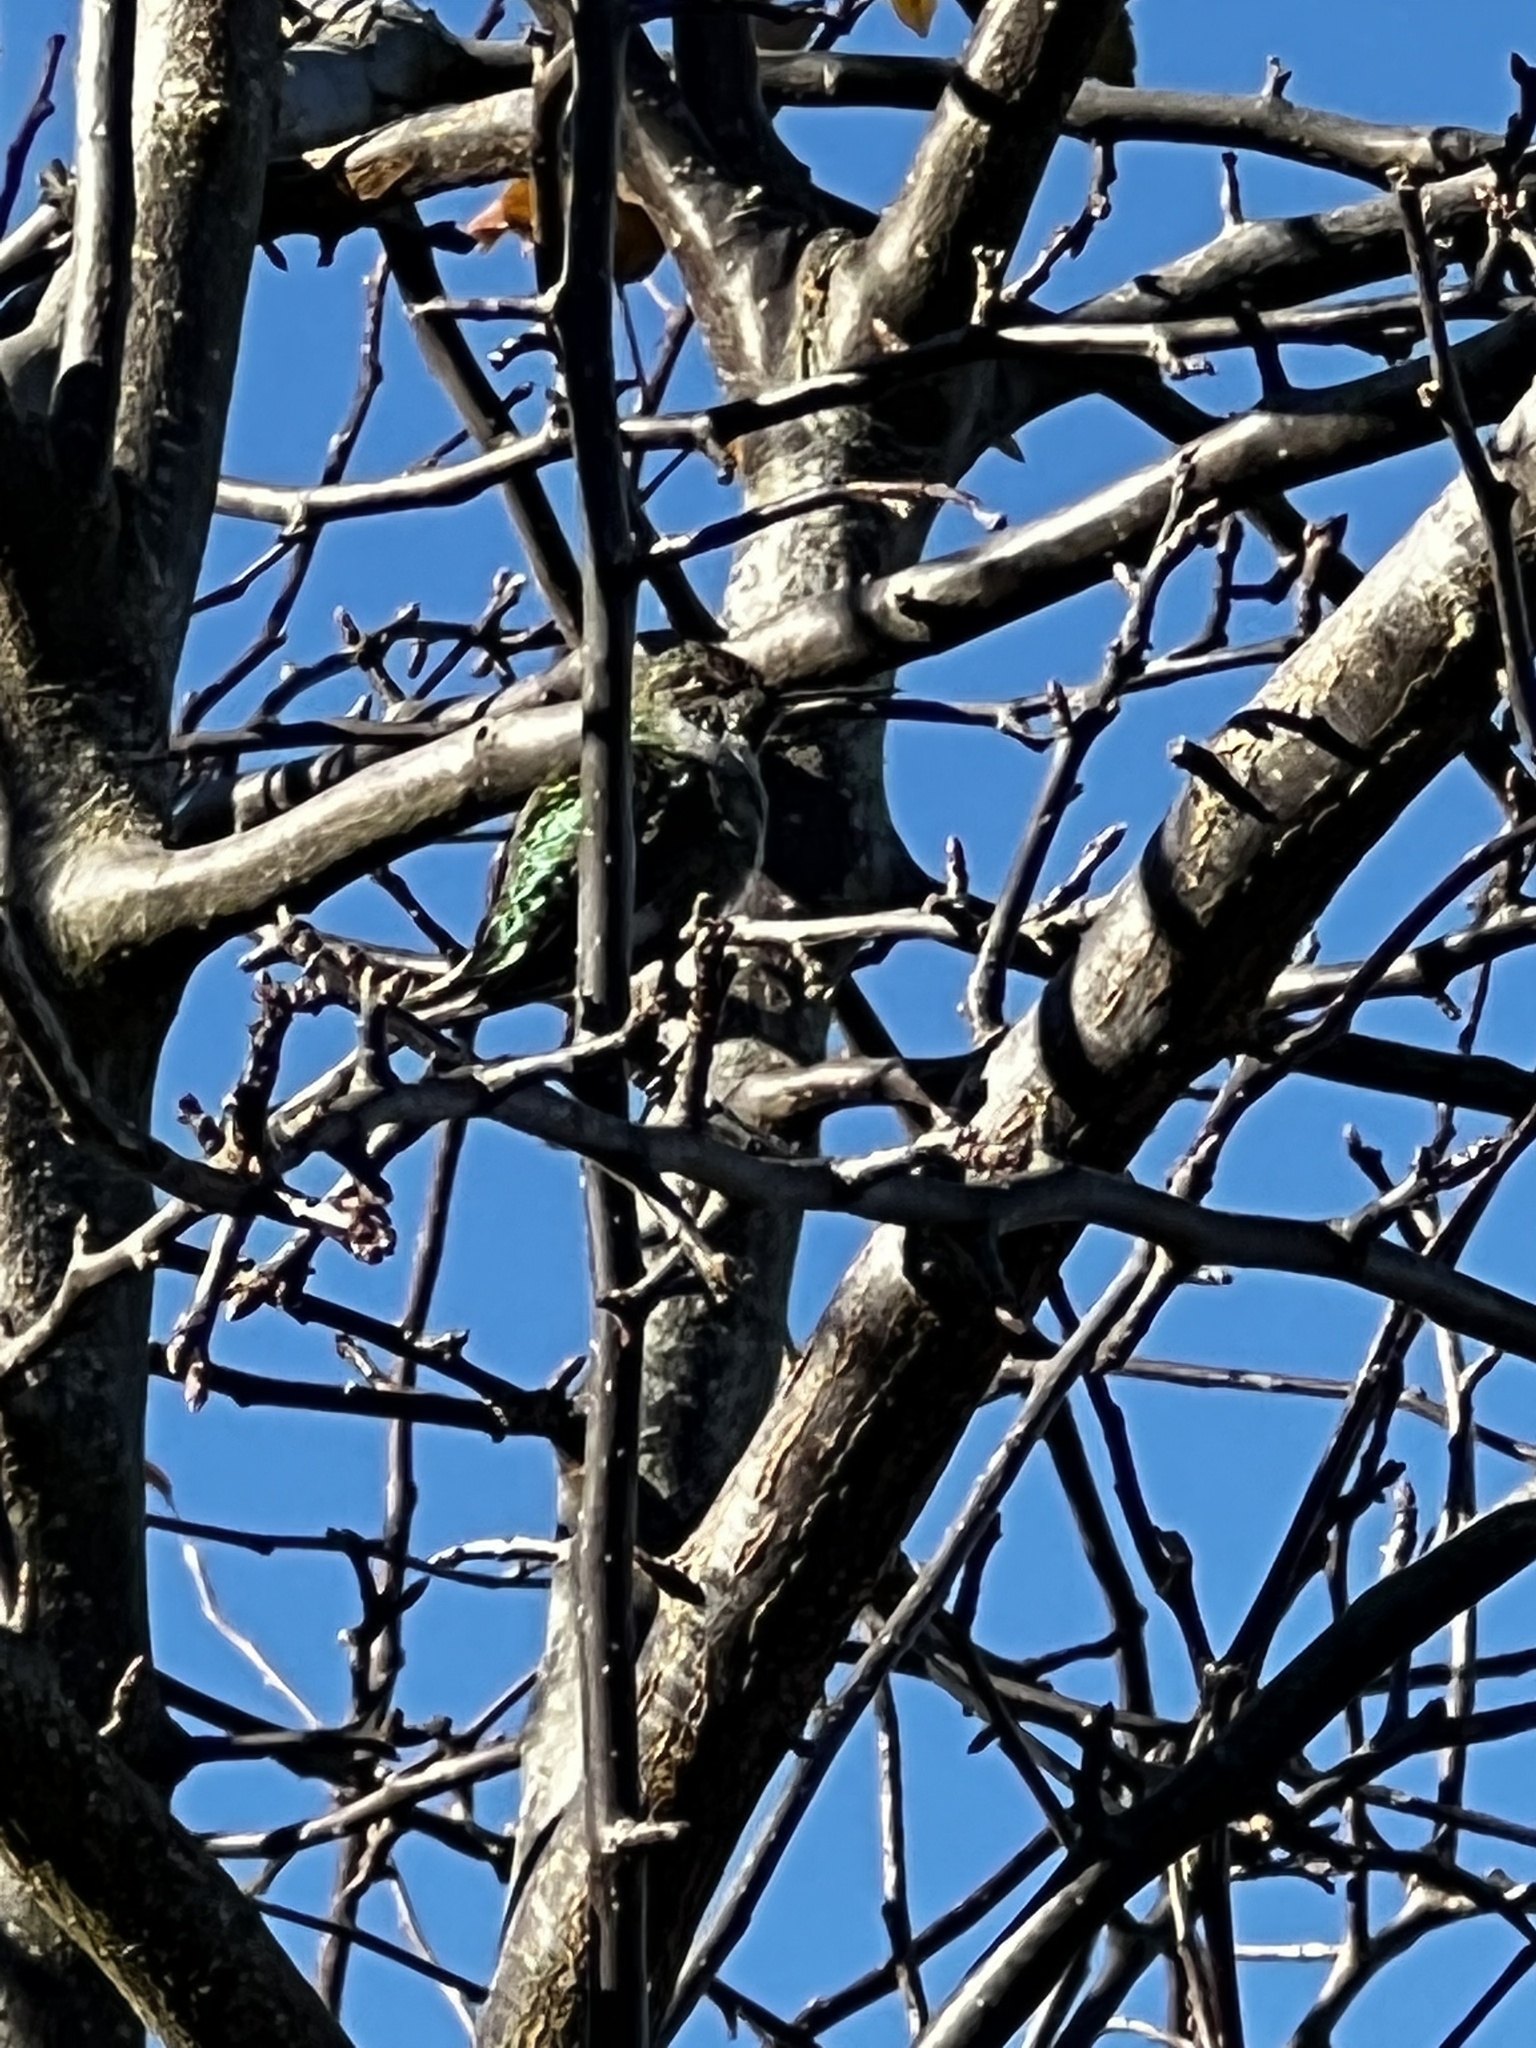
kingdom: Animalia
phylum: Chordata
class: Aves
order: Apodiformes
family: Trochilidae
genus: Calypte
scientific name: Calypte anna
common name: Anna's hummingbird
